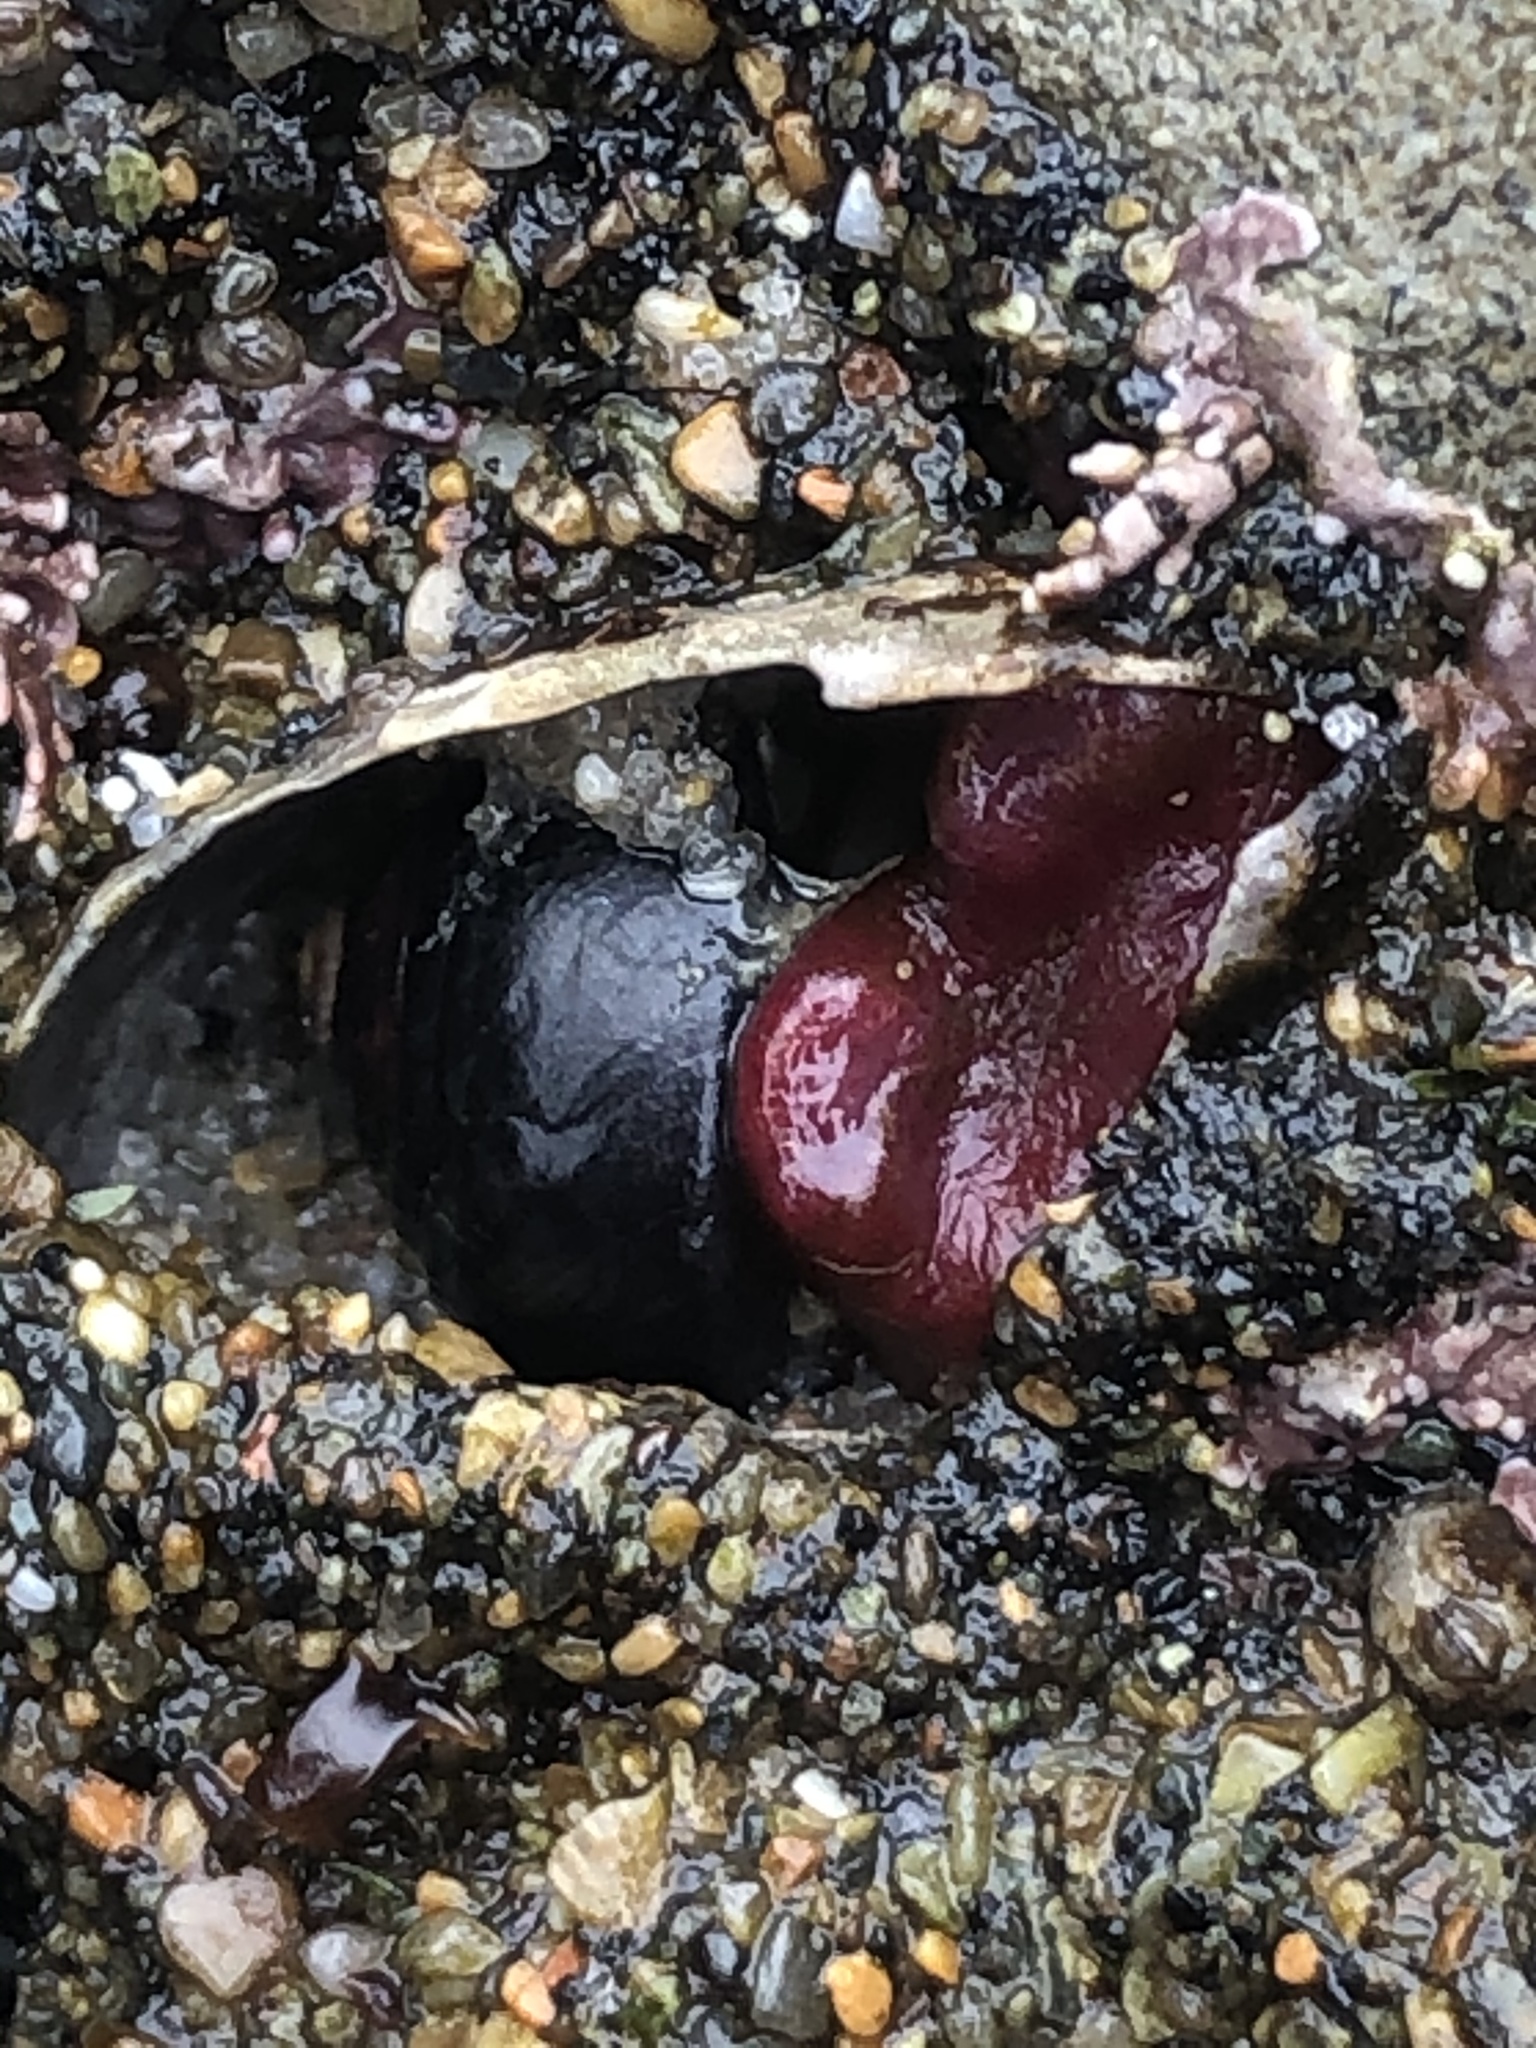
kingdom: Animalia
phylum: Mollusca
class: Bivalvia
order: Adapedonta
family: Hiatellidae
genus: Hiatella
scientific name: Hiatella arctica
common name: Arctic hiatella
